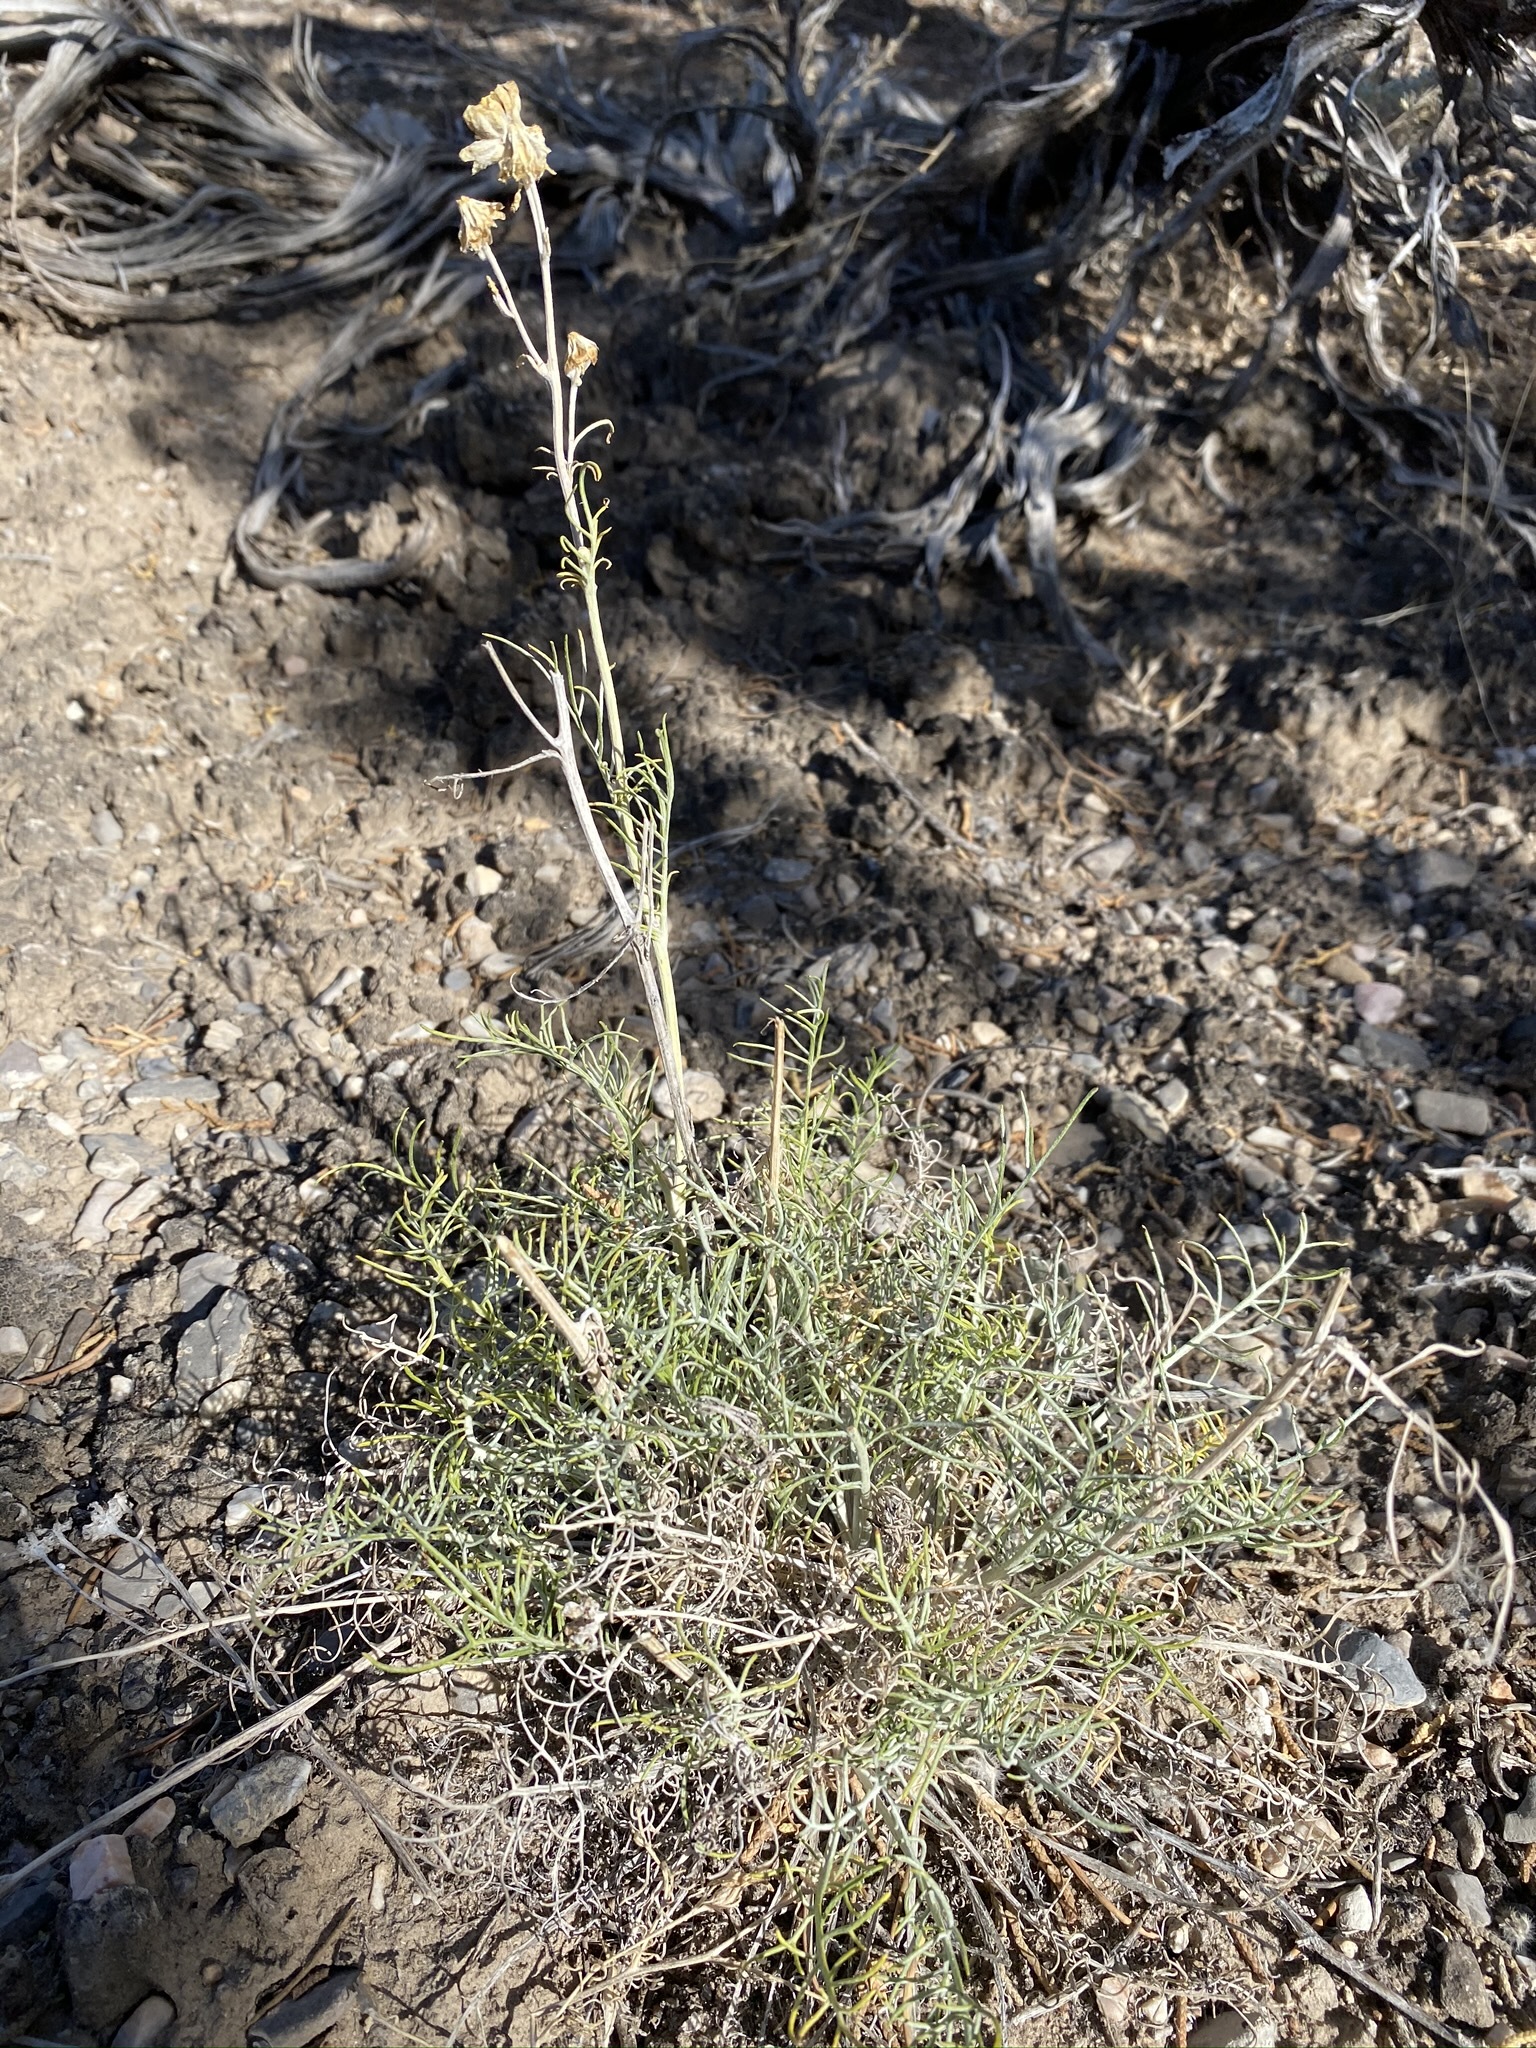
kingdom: Plantae
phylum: Tracheophyta
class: Magnoliopsida
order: Asterales
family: Asteraceae
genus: Hymenopappus
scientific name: Hymenopappus filifolius
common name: Columbia cutleaf
